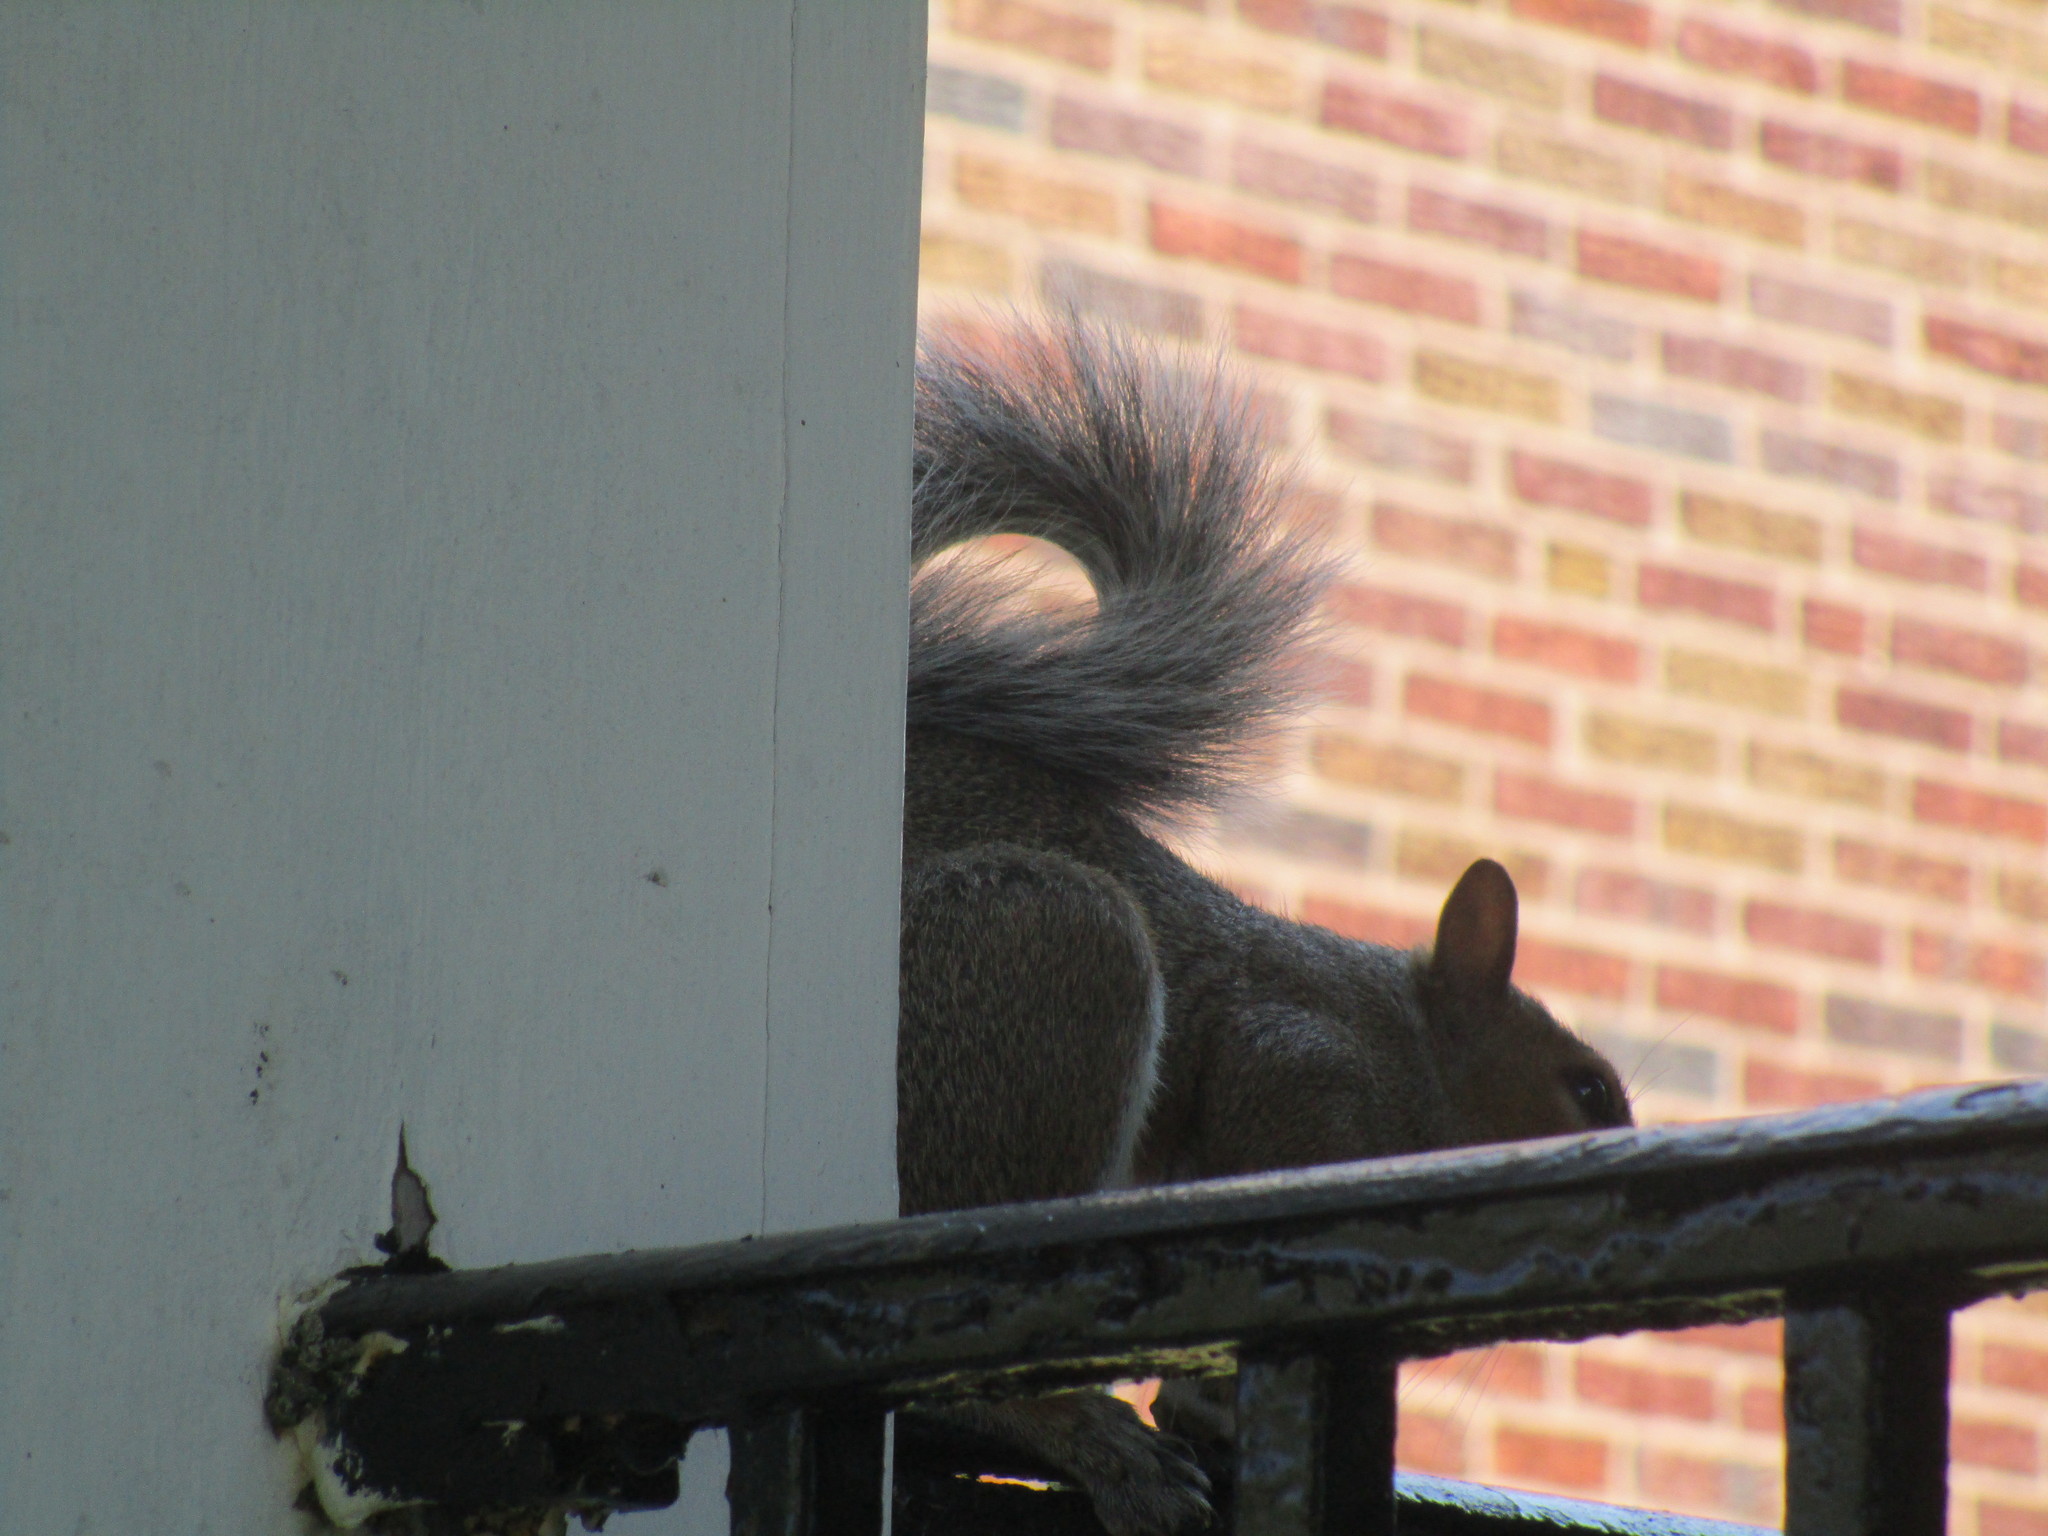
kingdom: Animalia
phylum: Chordata
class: Mammalia
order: Rodentia
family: Sciuridae
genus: Sciurus
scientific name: Sciurus carolinensis
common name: Eastern gray squirrel
